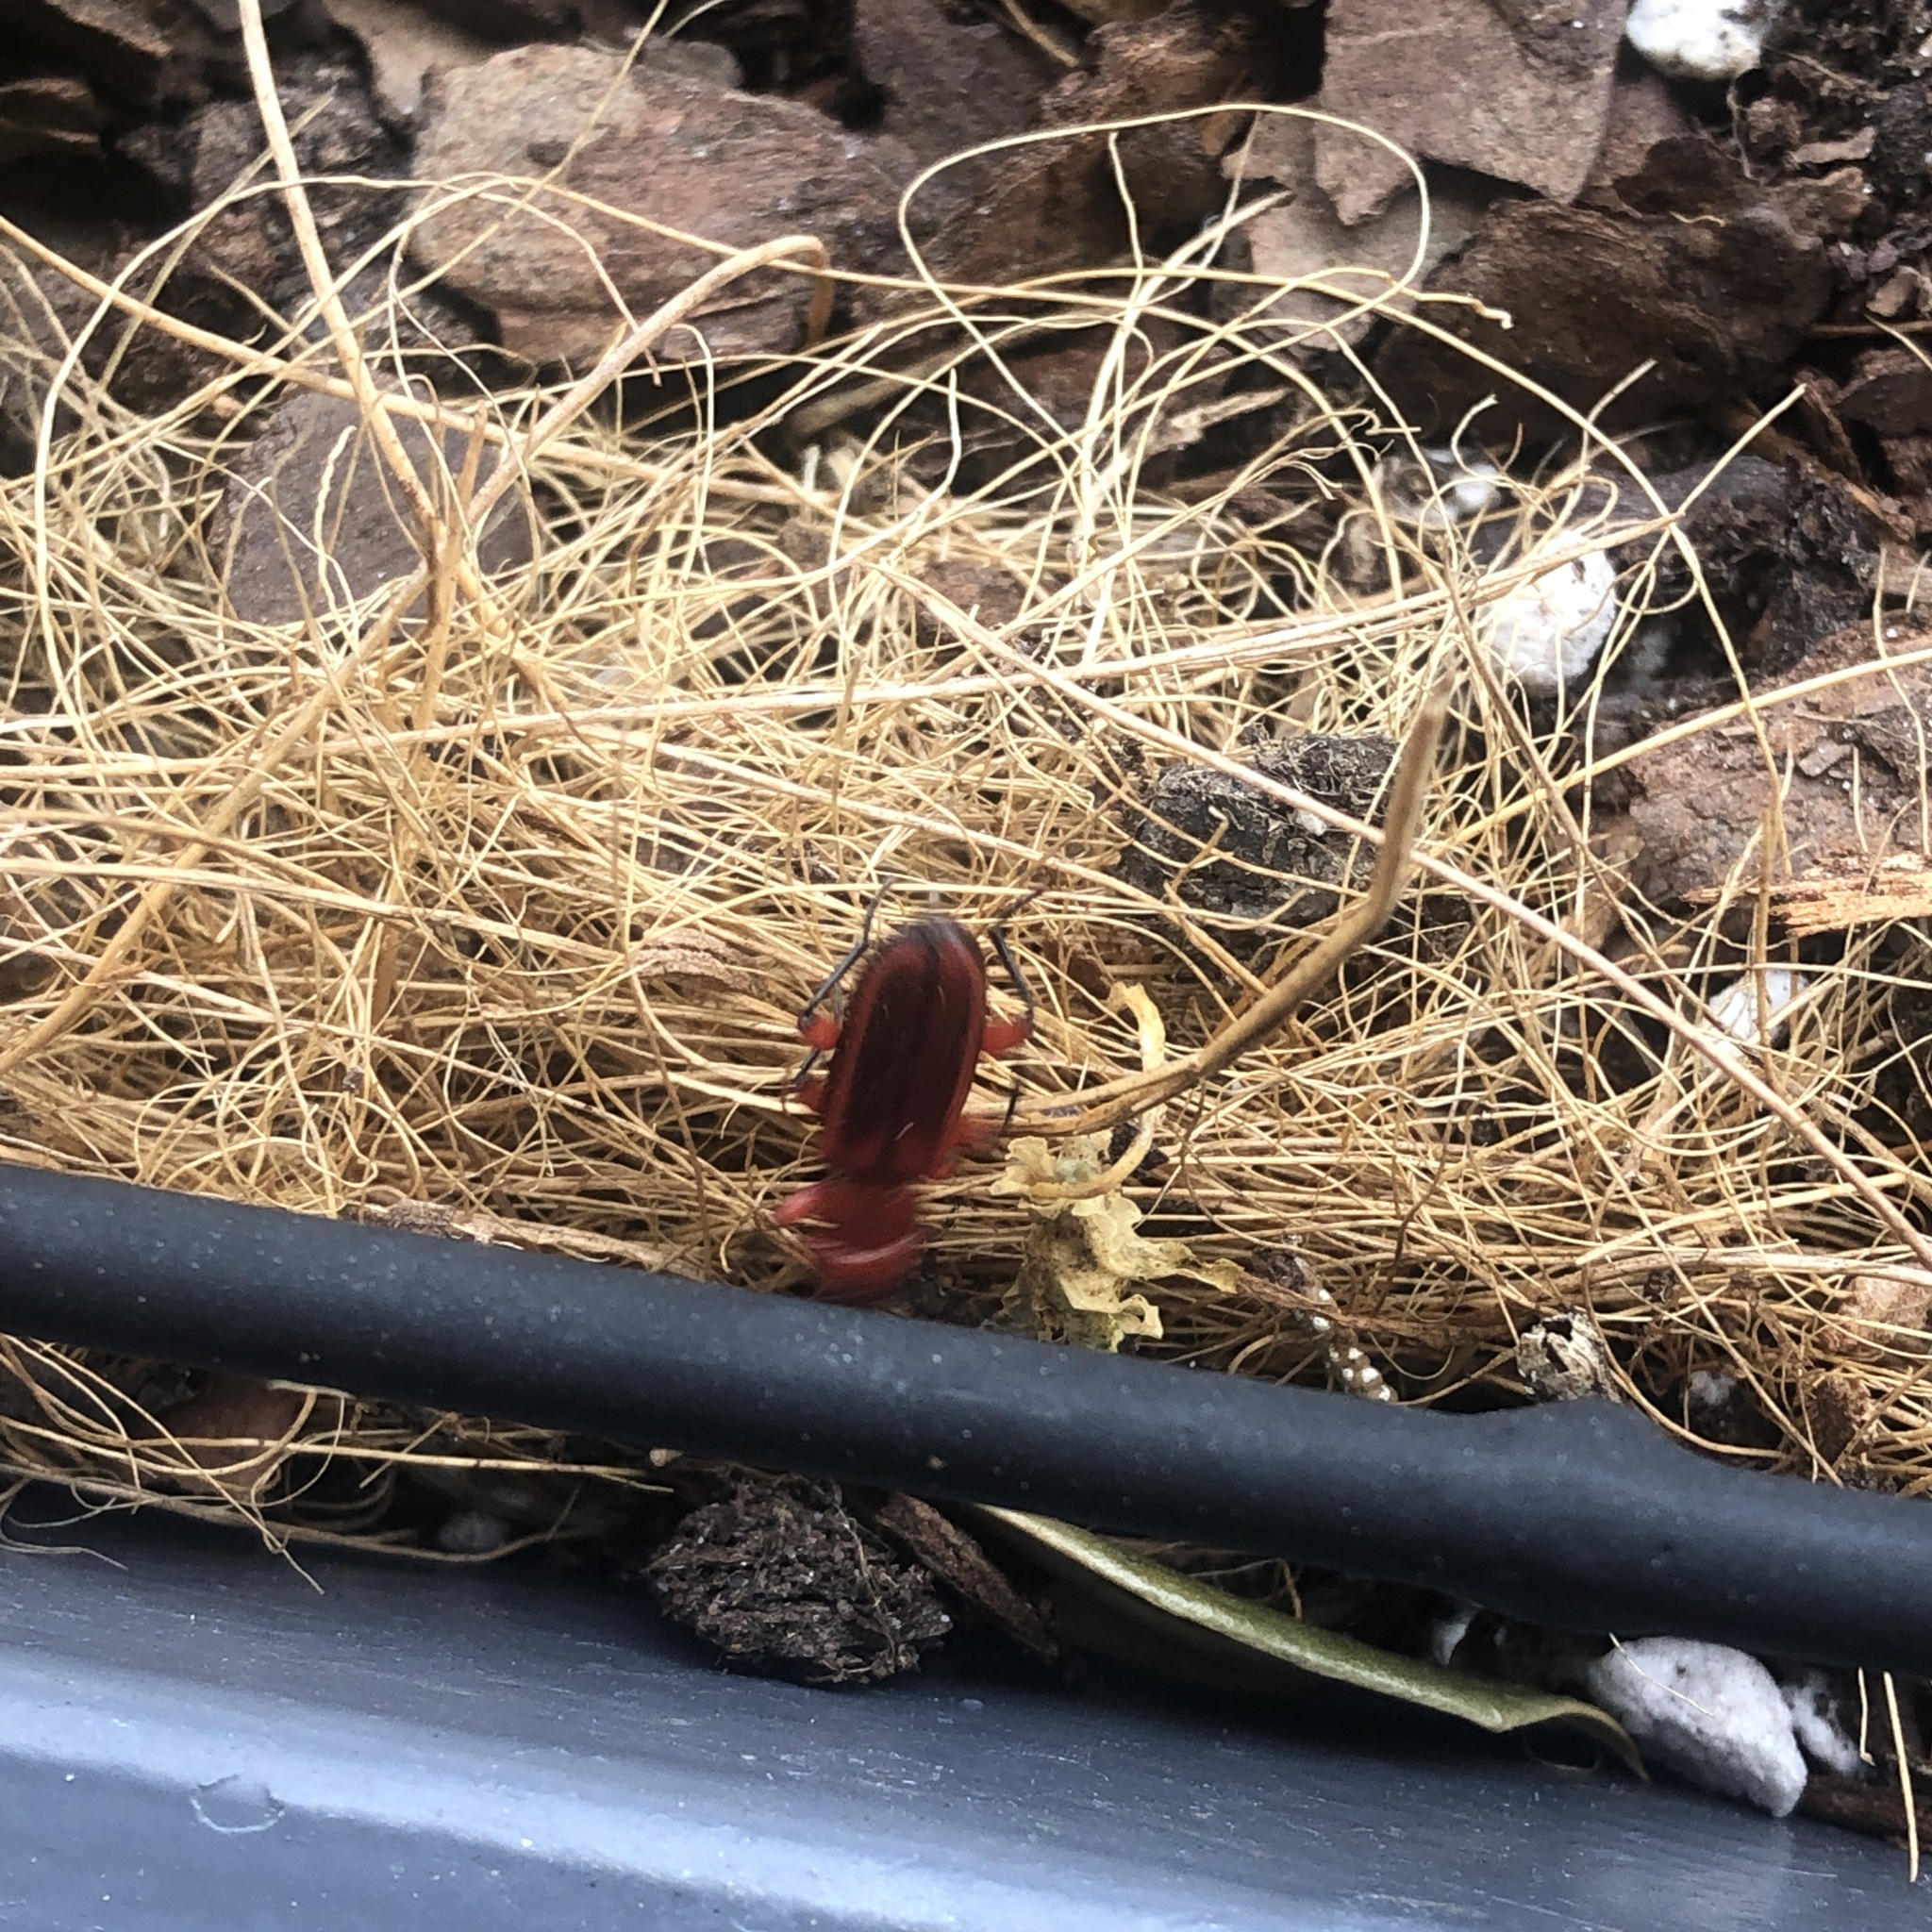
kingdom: Animalia
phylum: Arthropoda
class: Insecta
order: Coleoptera
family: Cucujidae
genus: Cucujus
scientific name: Cucujus clavipes
